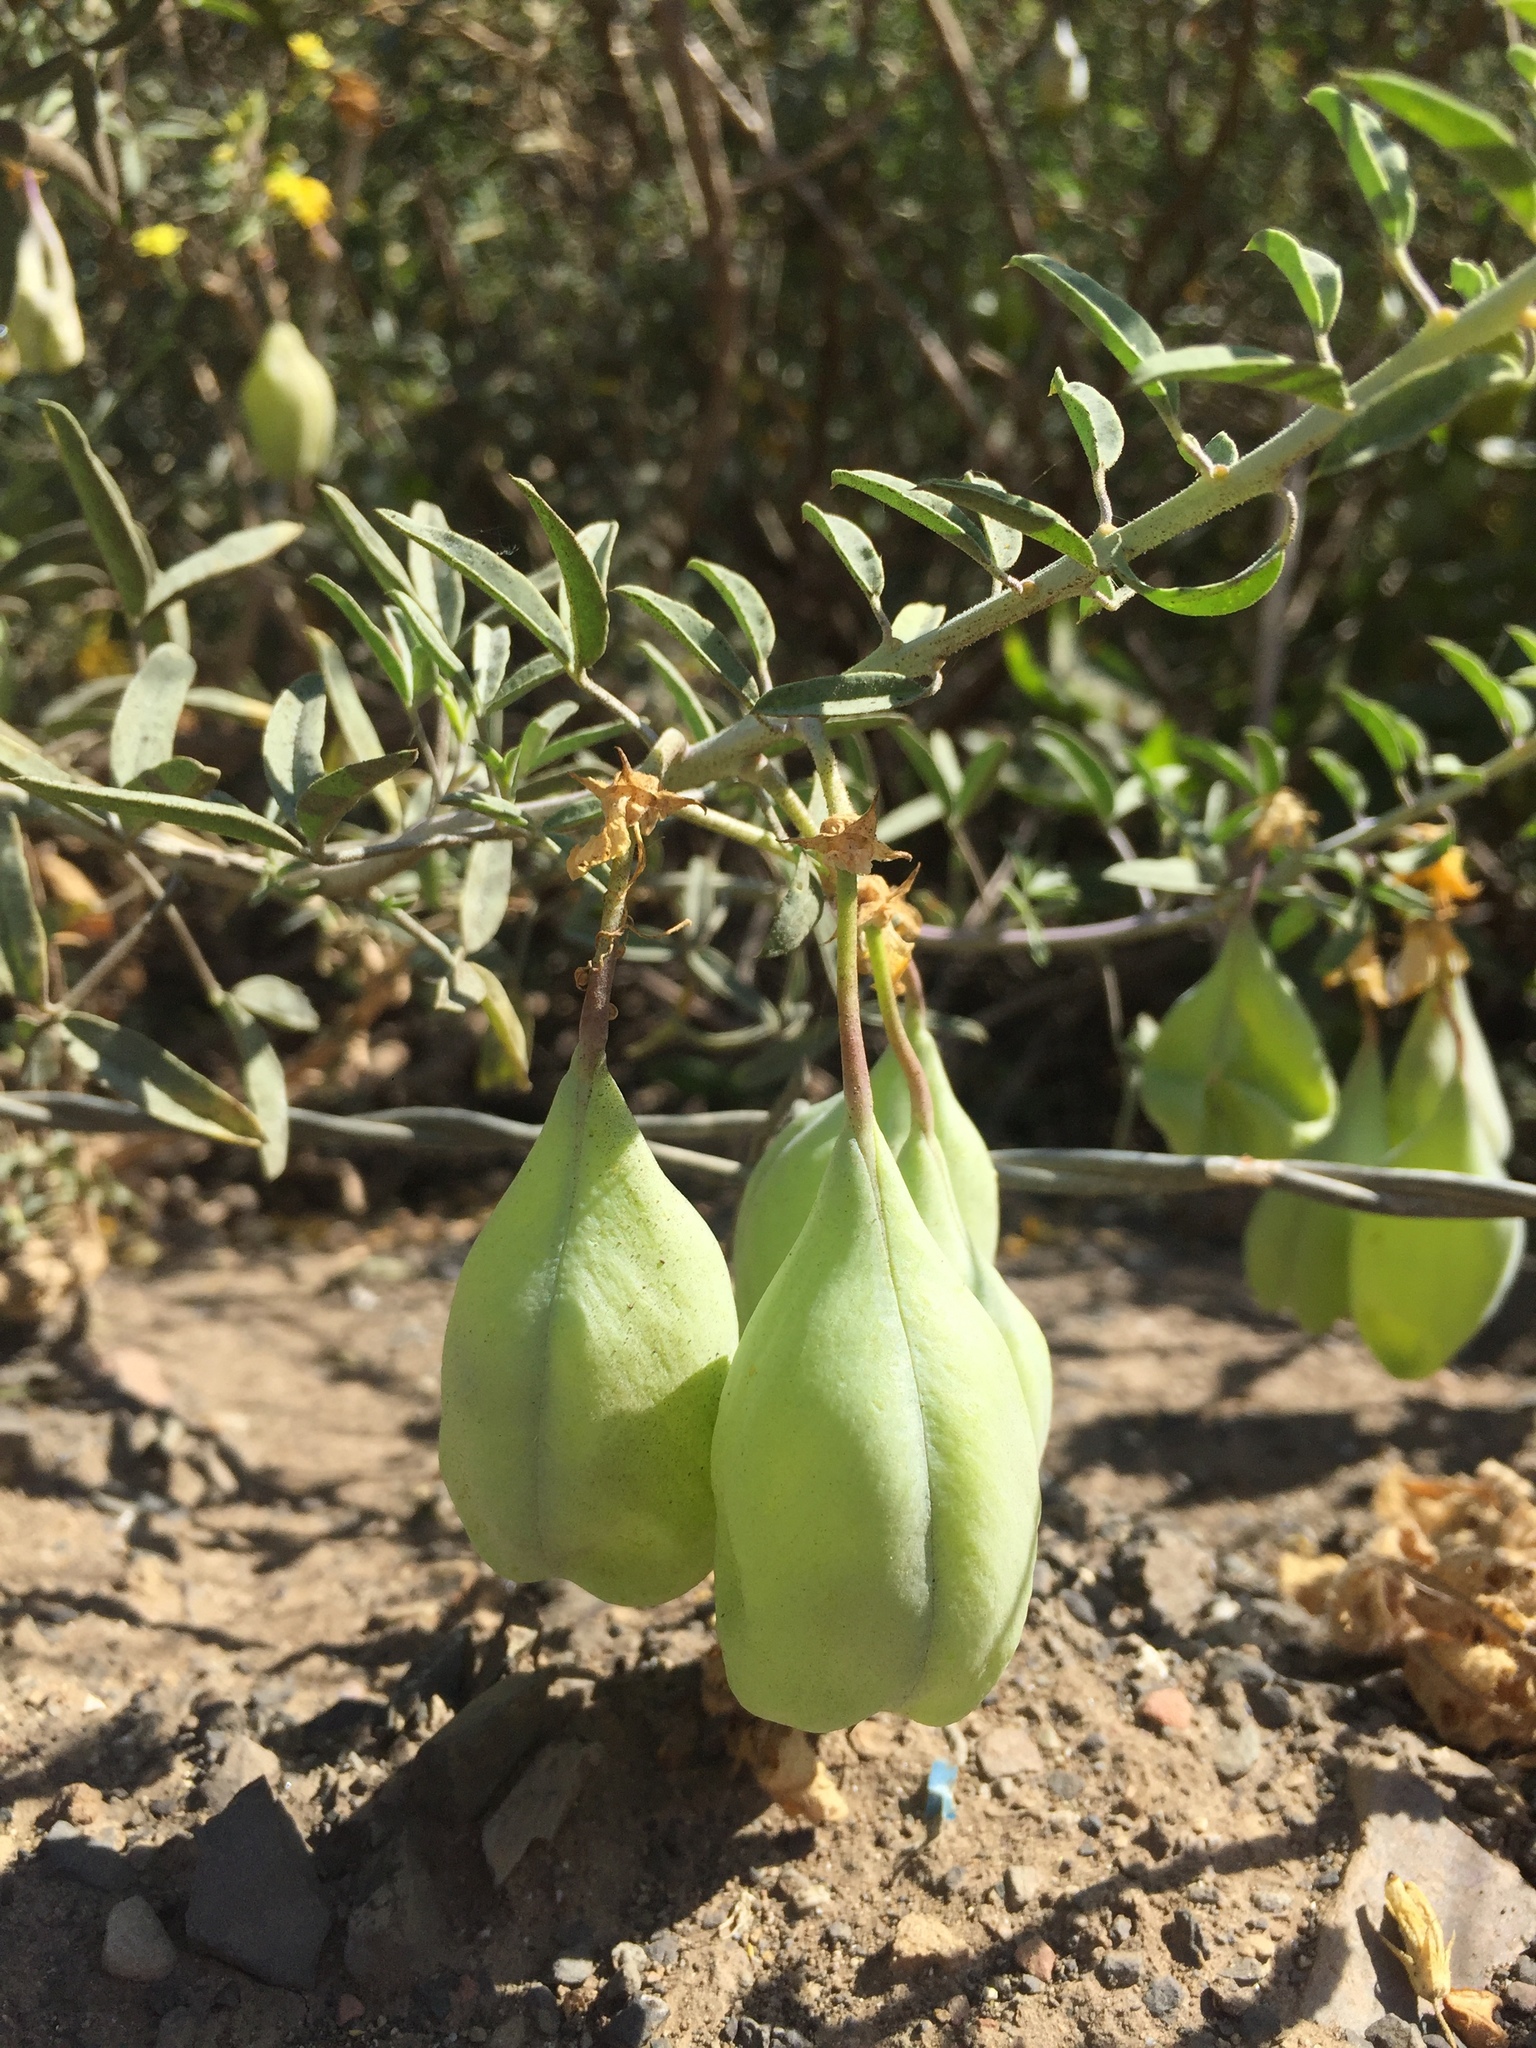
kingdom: Plantae
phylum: Tracheophyta
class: Magnoliopsida
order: Brassicales
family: Cleomaceae
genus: Cleomella
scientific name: Cleomella arborea
